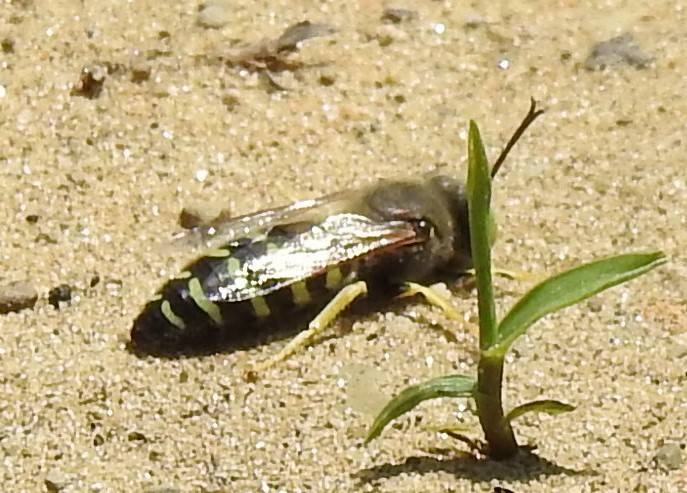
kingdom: Animalia
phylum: Arthropoda
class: Insecta
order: Hymenoptera
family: Crabronidae
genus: Bembix
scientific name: Bembix americana
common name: American sand wasp
